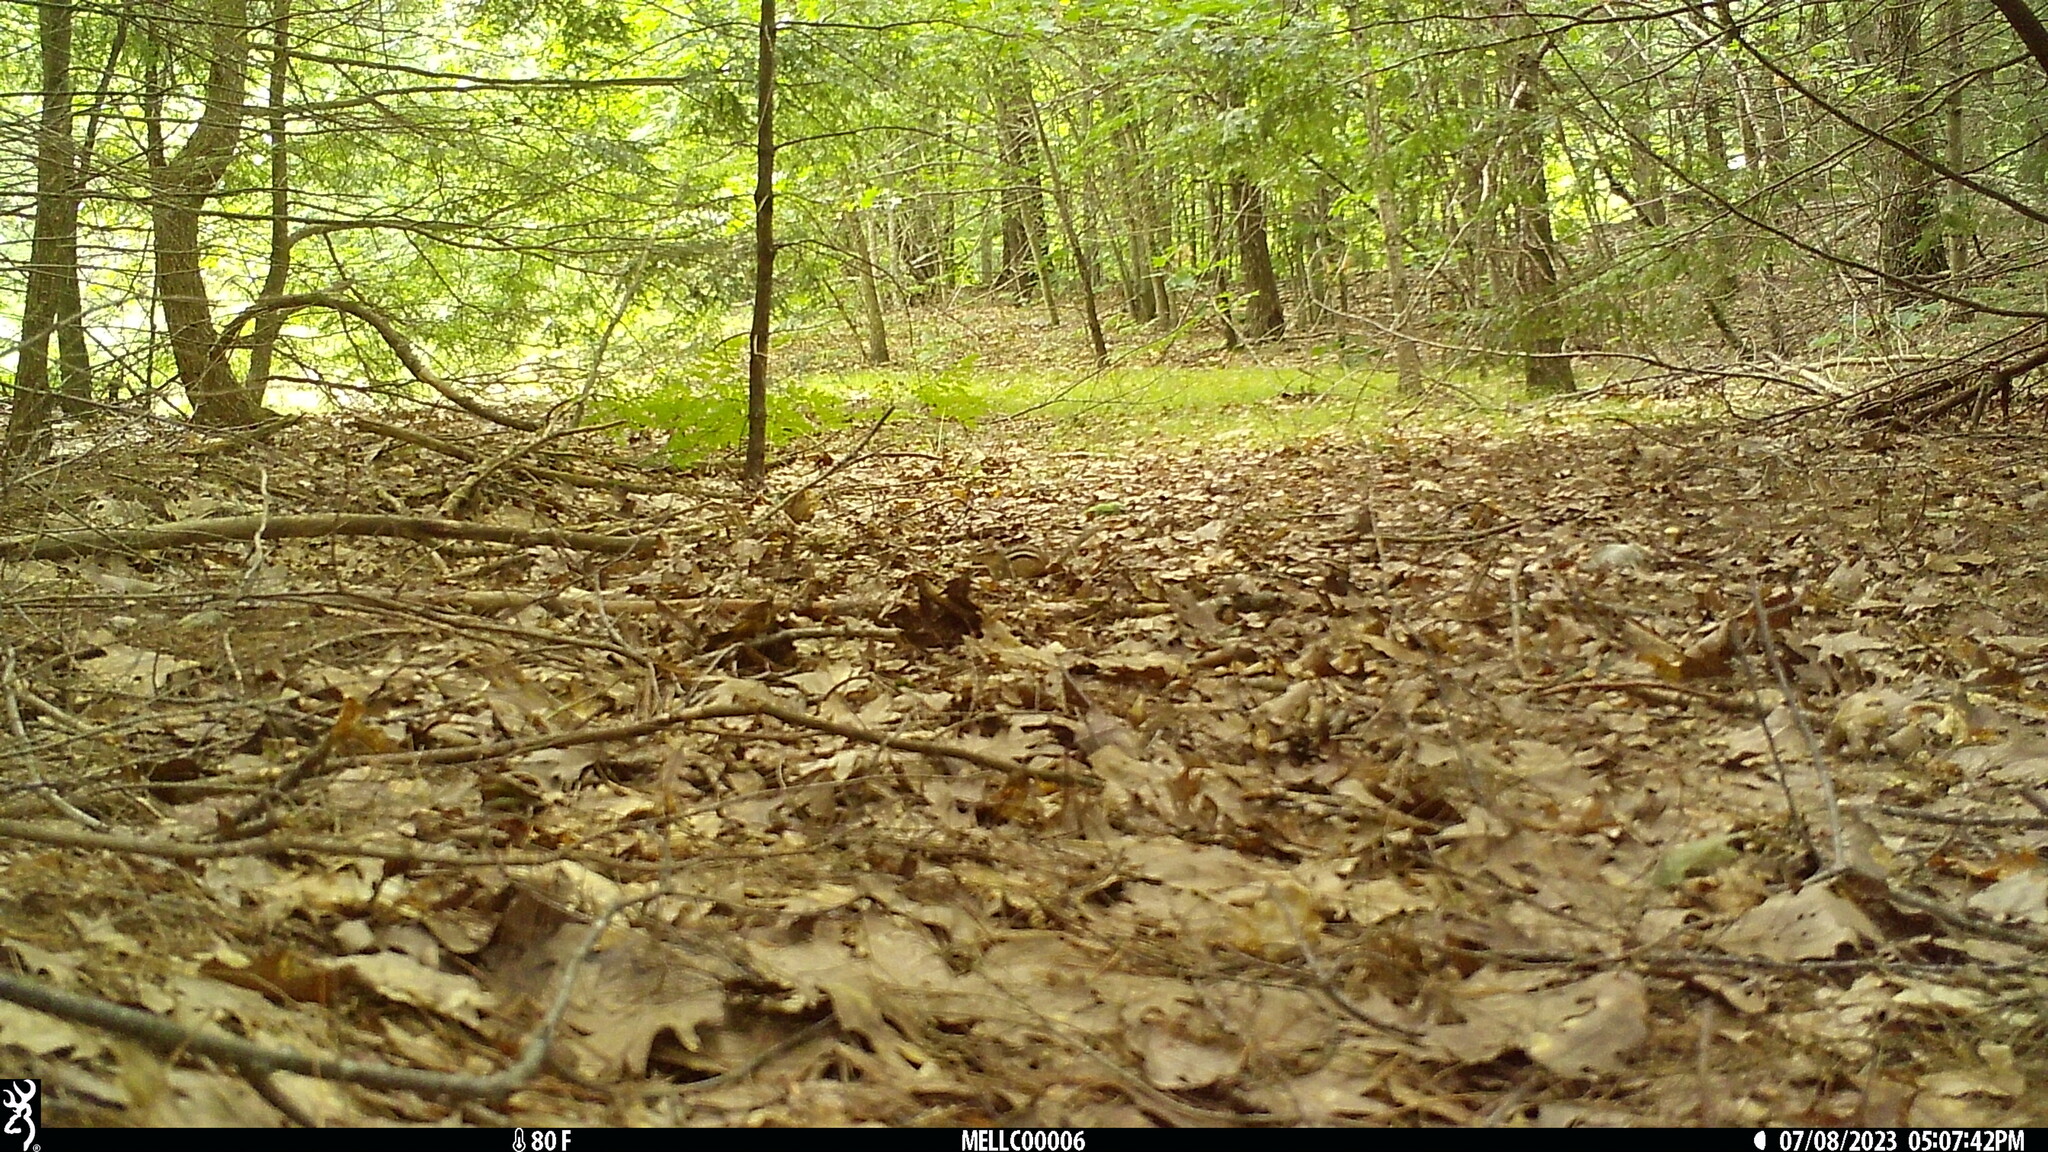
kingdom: Animalia
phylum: Chordata
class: Mammalia
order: Rodentia
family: Sciuridae
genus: Tamias
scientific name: Tamias striatus
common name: Eastern chipmunk
